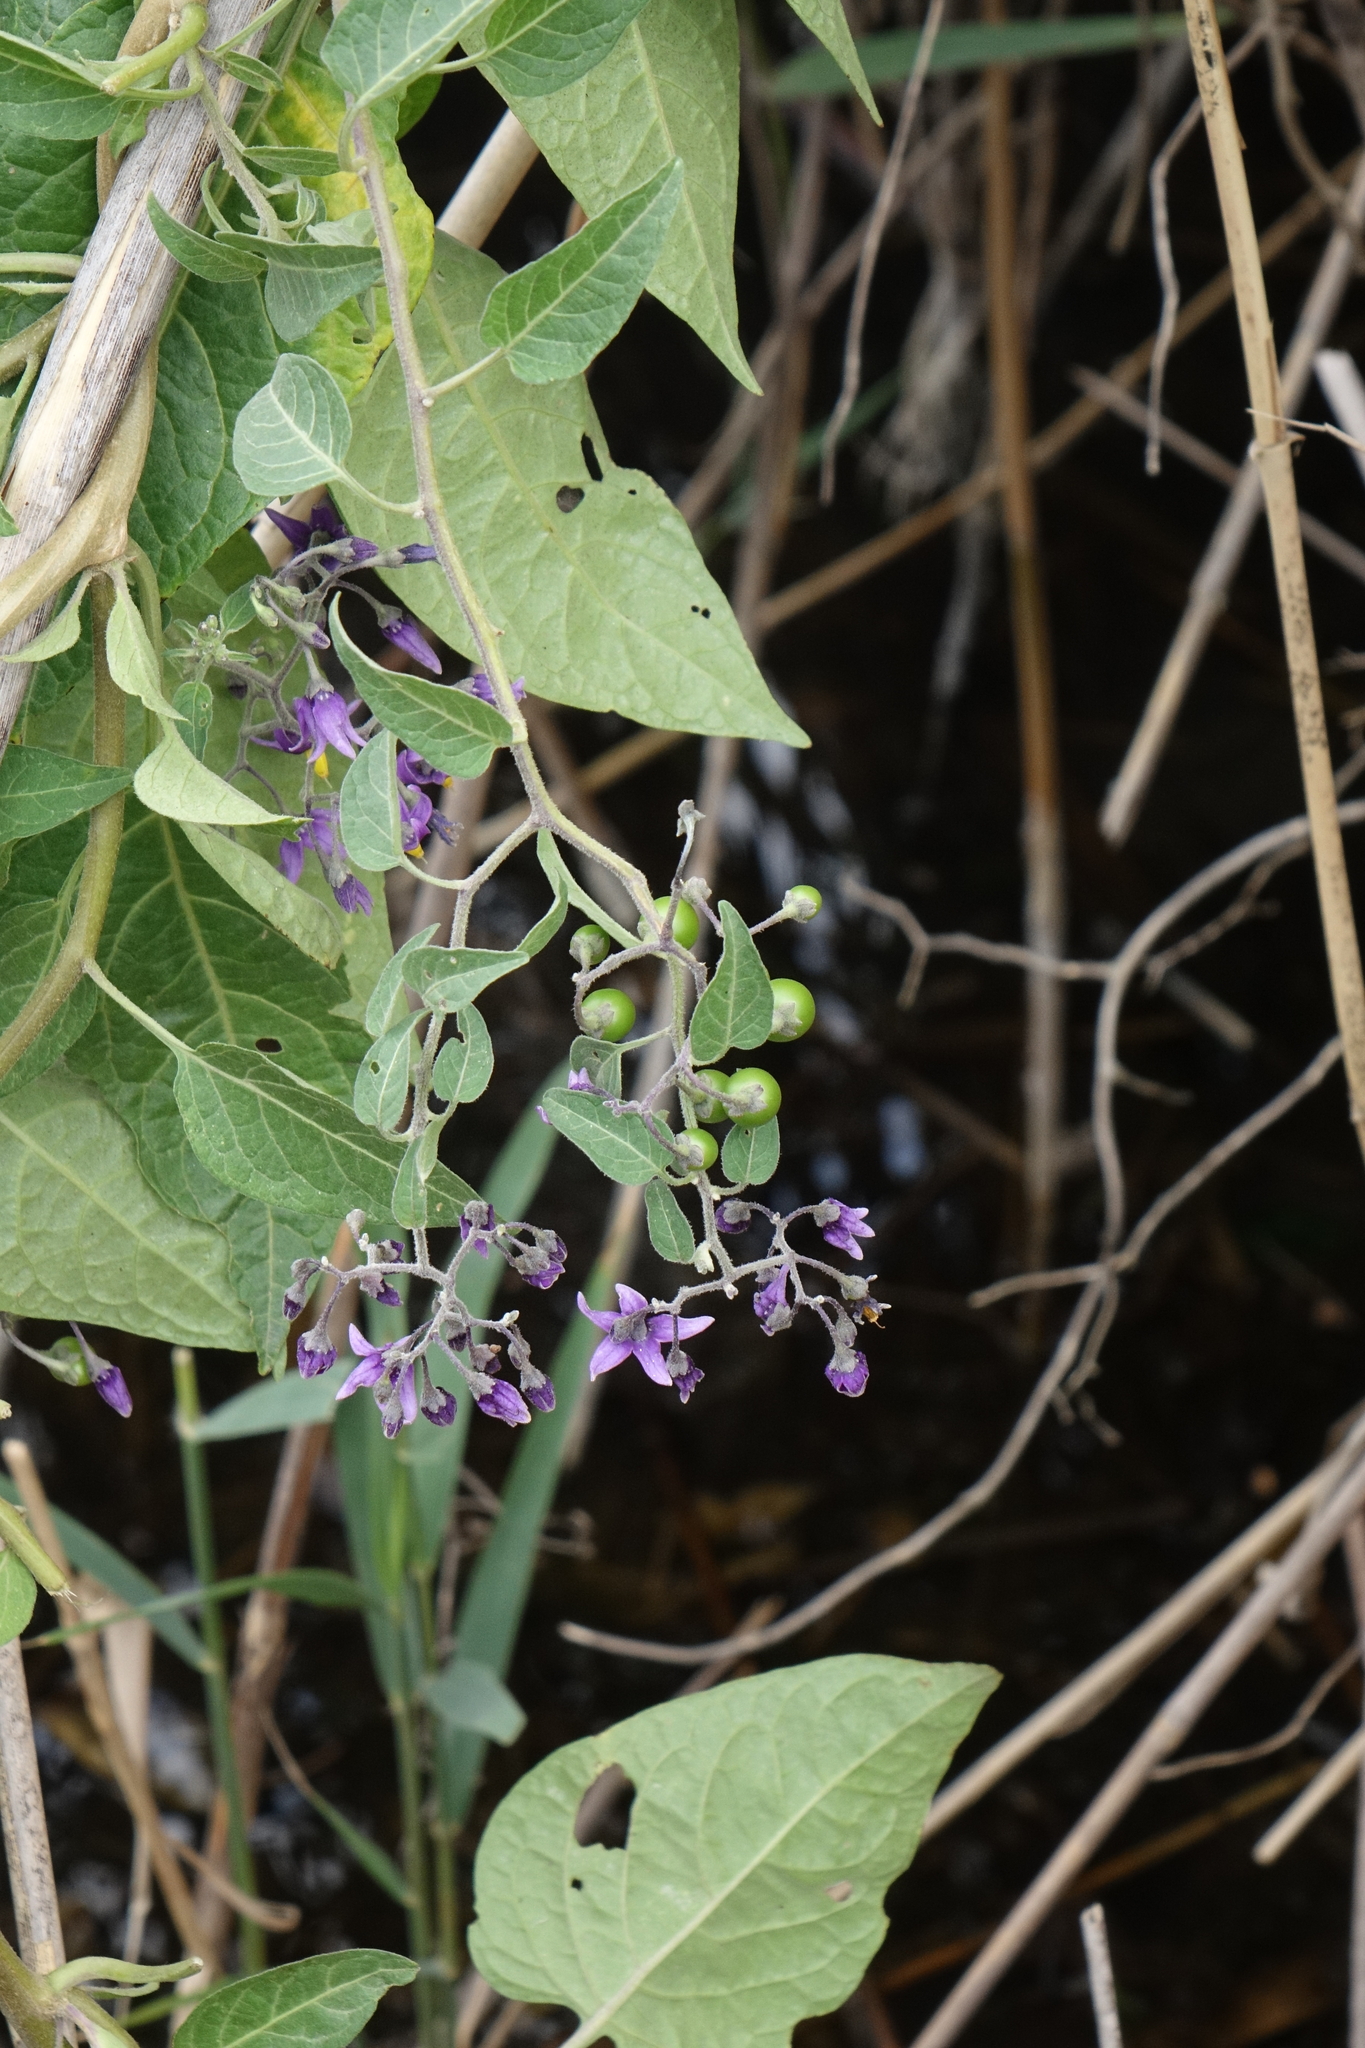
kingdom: Plantae
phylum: Tracheophyta
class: Magnoliopsida
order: Solanales
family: Solanaceae
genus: Solanum
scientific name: Solanum dulcamara
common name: Climbing nightshade
